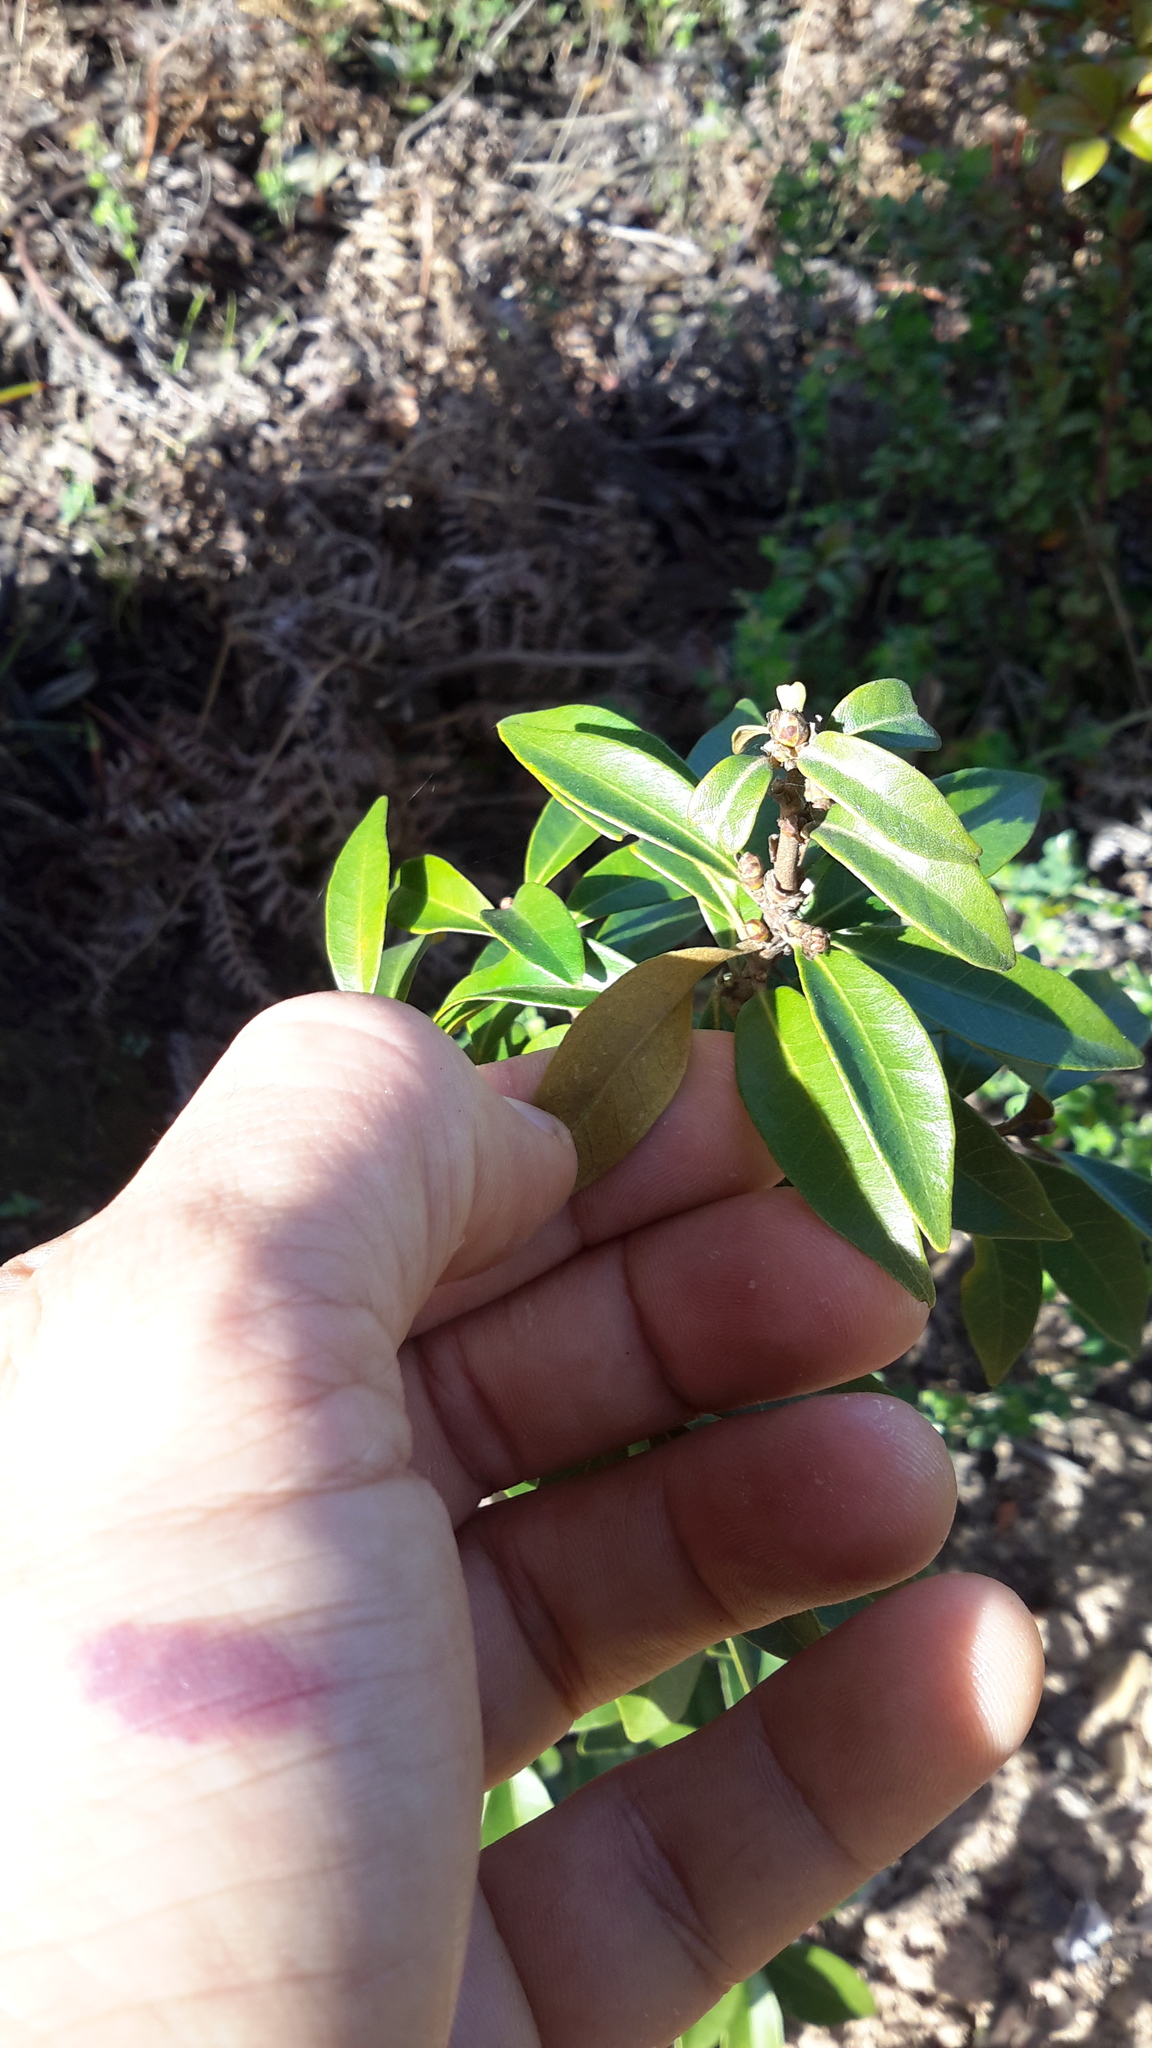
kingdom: Plantae
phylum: Tracheophyta
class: Magnoliopsida
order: Fagales
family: Fagaceae
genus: Chrysolepis
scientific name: Chrysolepis chrysophylla
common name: Giant chinquapin
